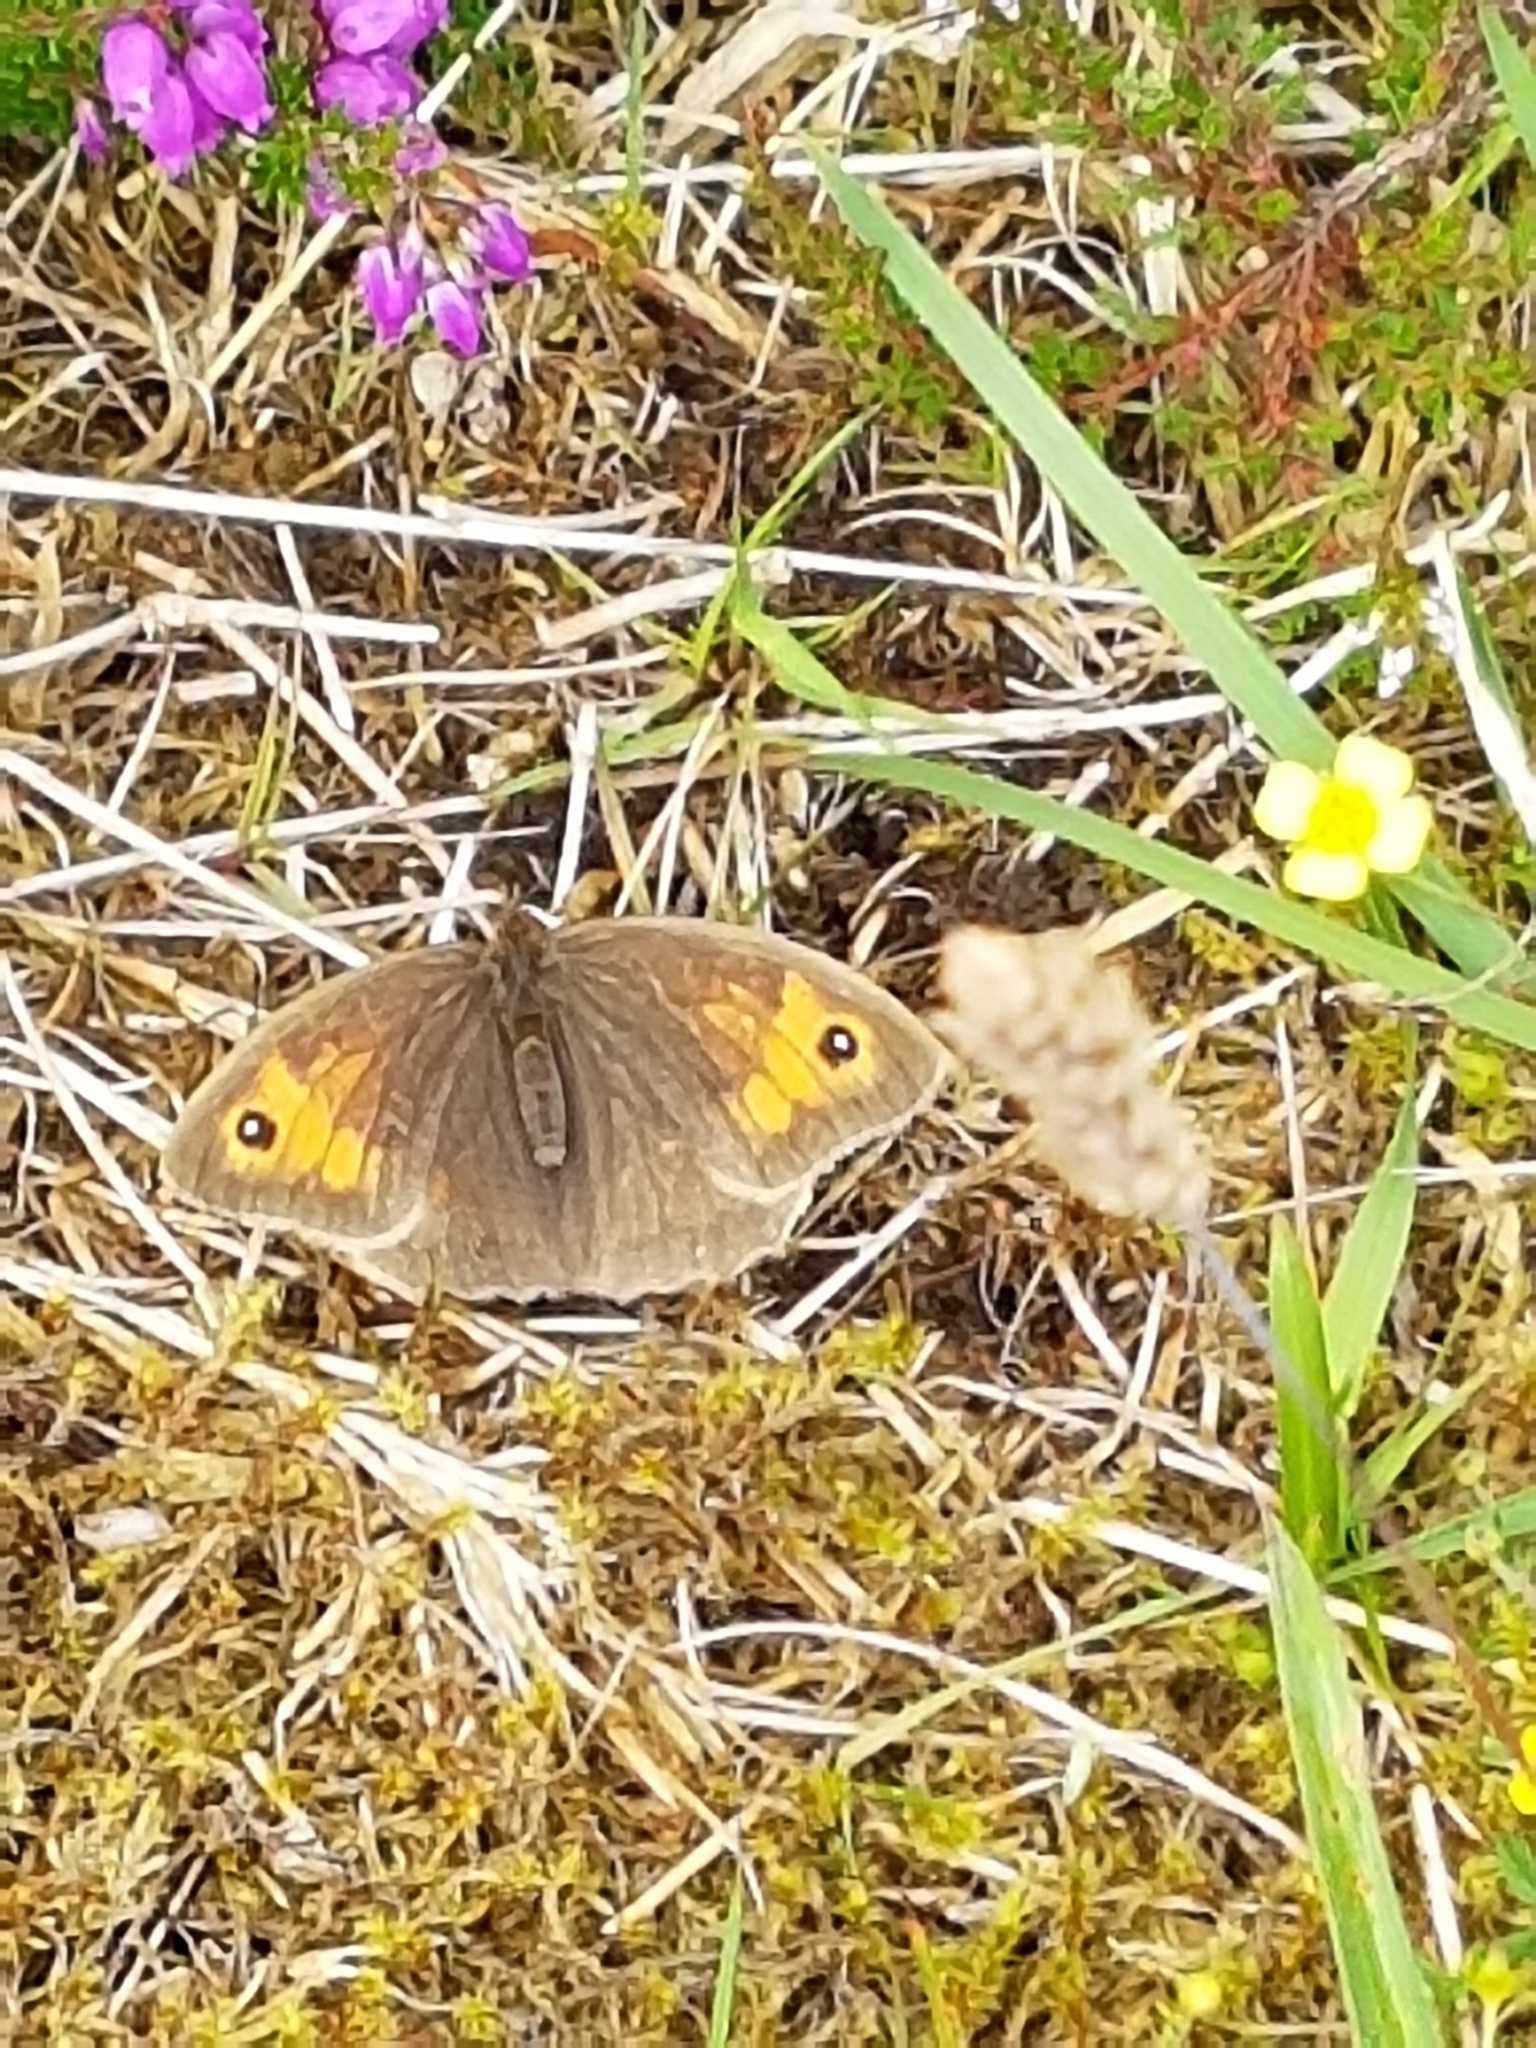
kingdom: Animalia
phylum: Arthropoda
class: Insecta
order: Lepidoptera
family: Nymphalidae
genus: Maniola
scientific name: Maniola jurtina
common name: Meadow brown
